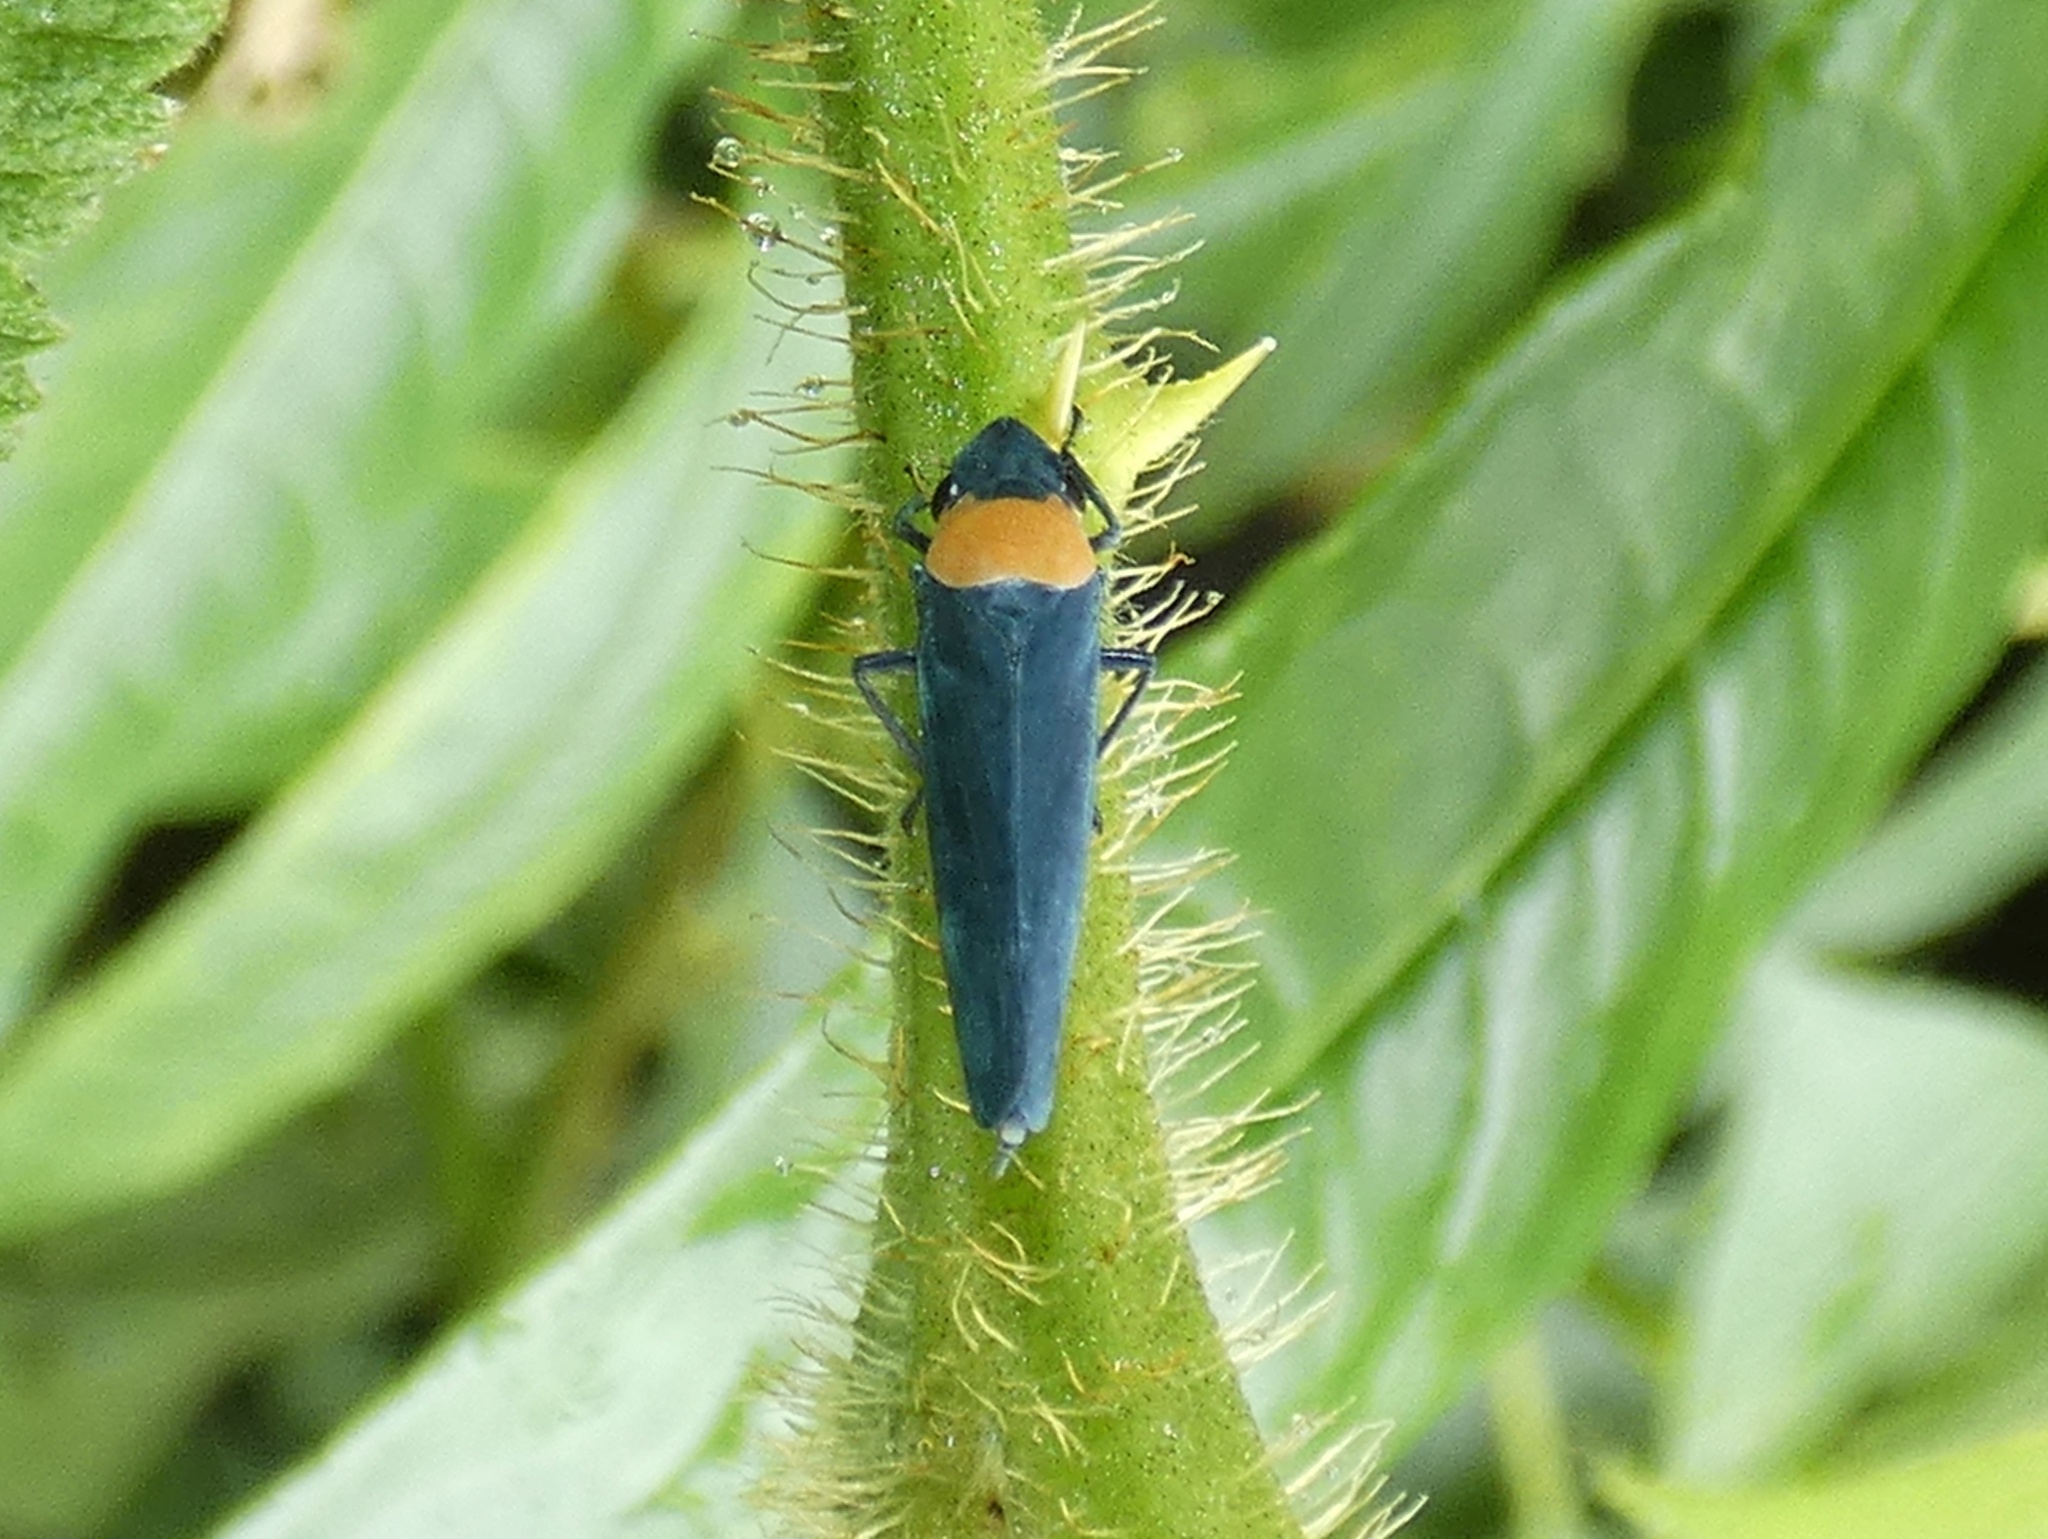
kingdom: Animalia
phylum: Arthropoda
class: Insecta
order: Hemiptera
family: Cicadellidae
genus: Barbinolla
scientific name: Barbinolla costaricensis
